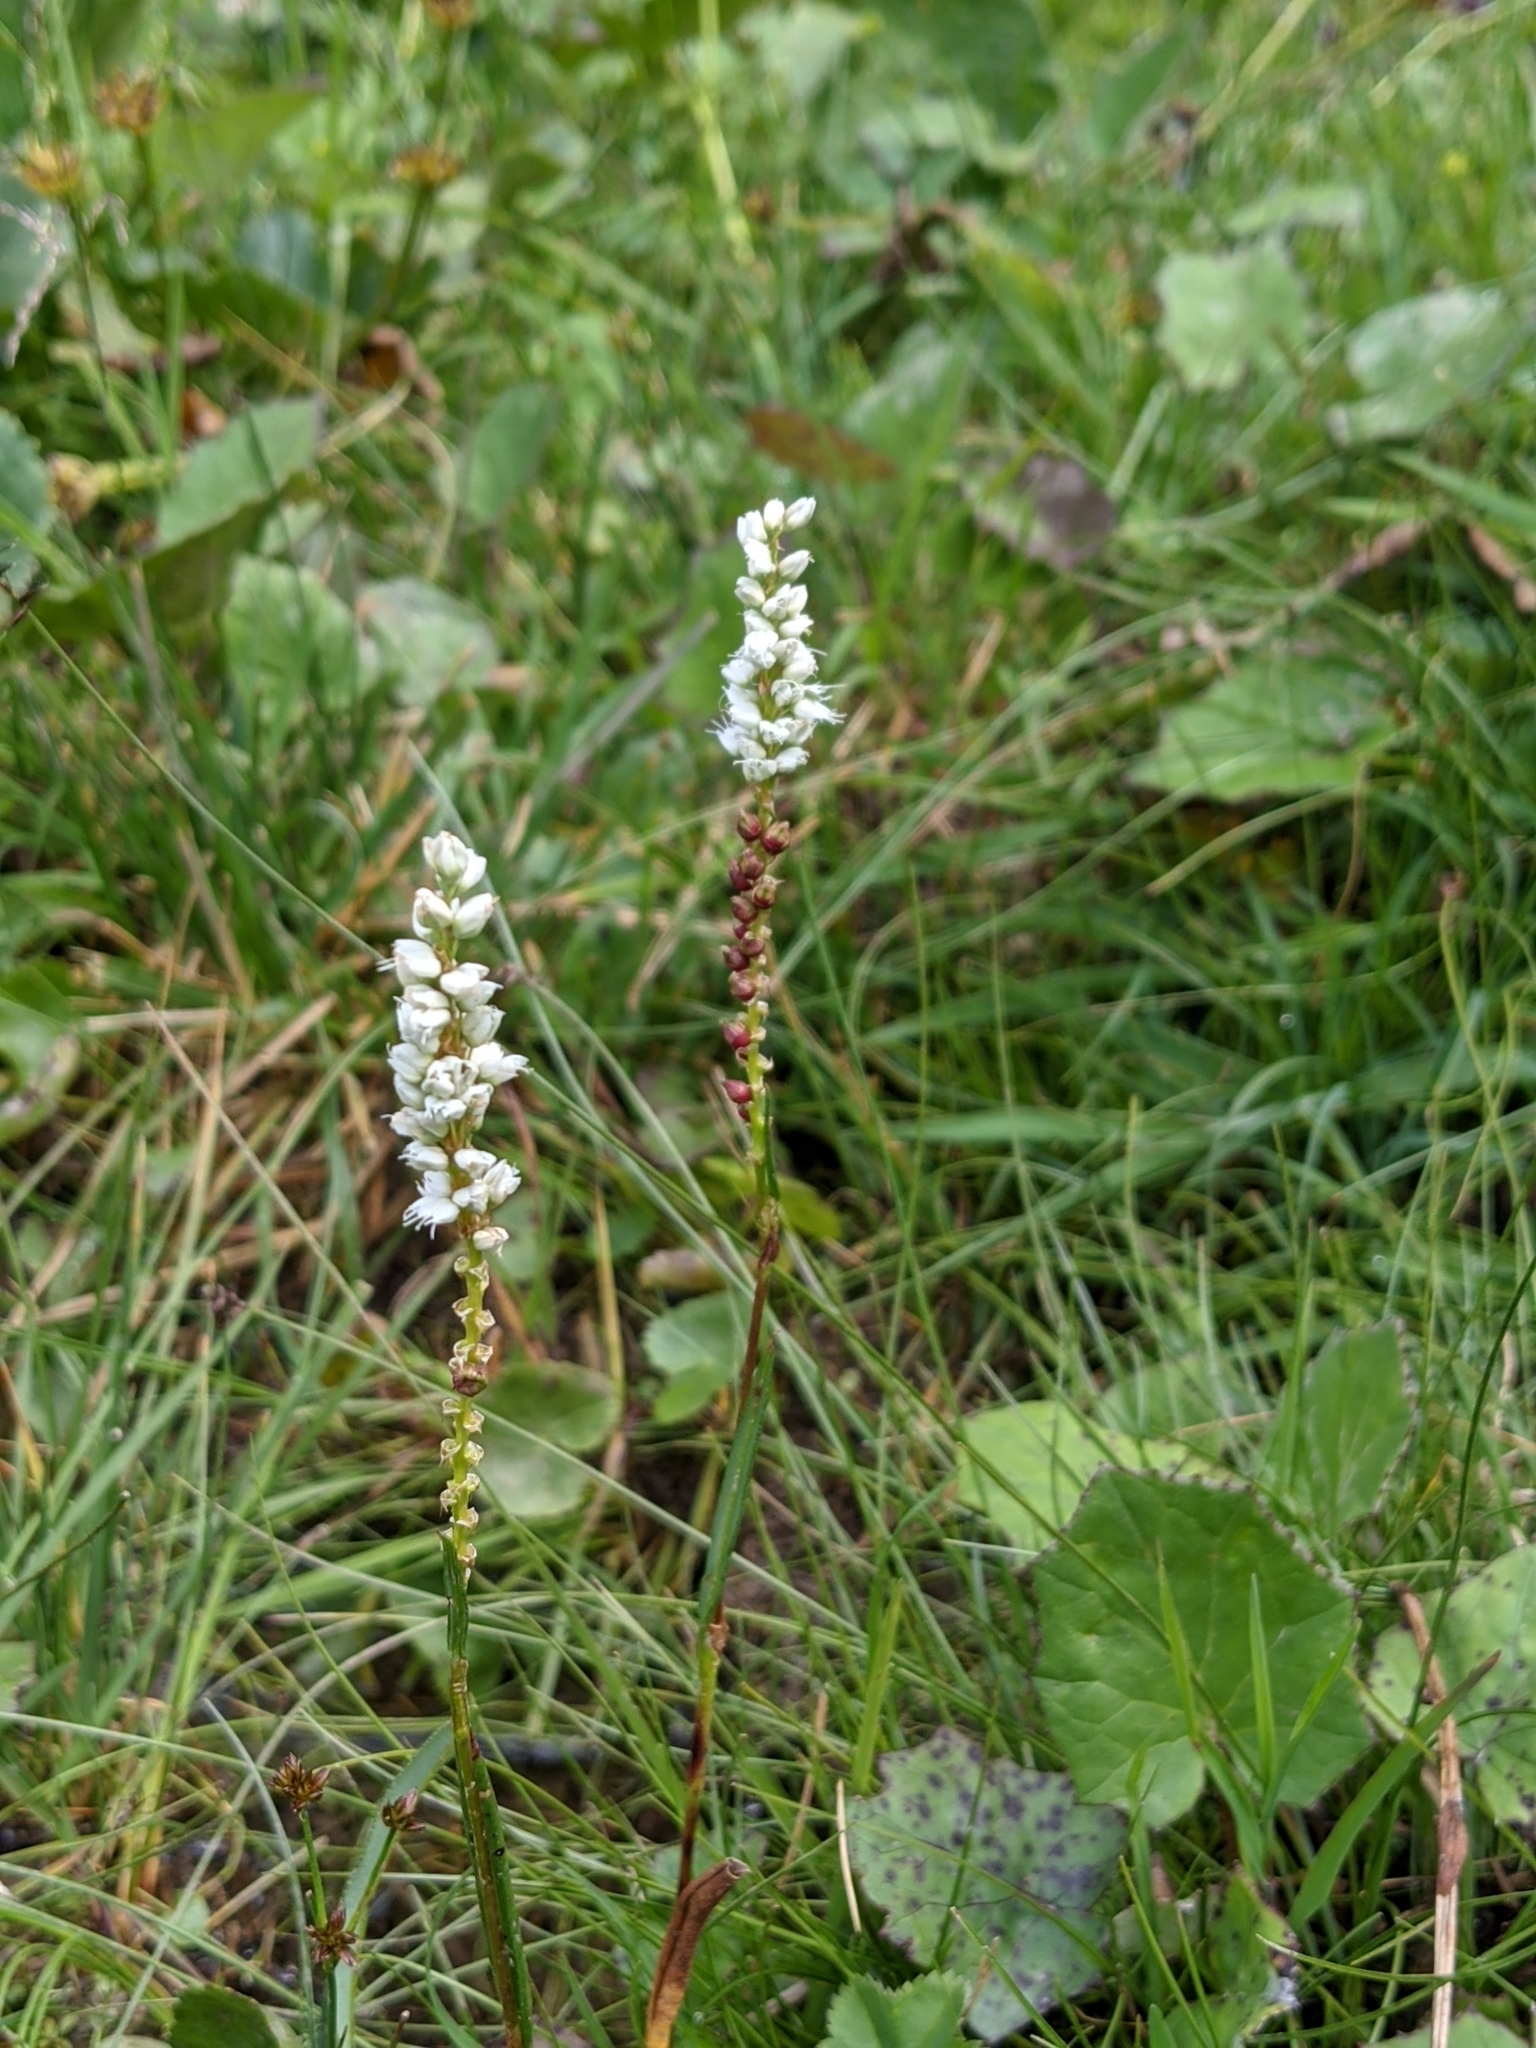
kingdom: Plantae
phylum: Tracheophyta
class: Magnoliopsida
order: Caryophyllales
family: Polygonaceae
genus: Bistorta
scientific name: Bistorta vivipara
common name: Alpine bistort
